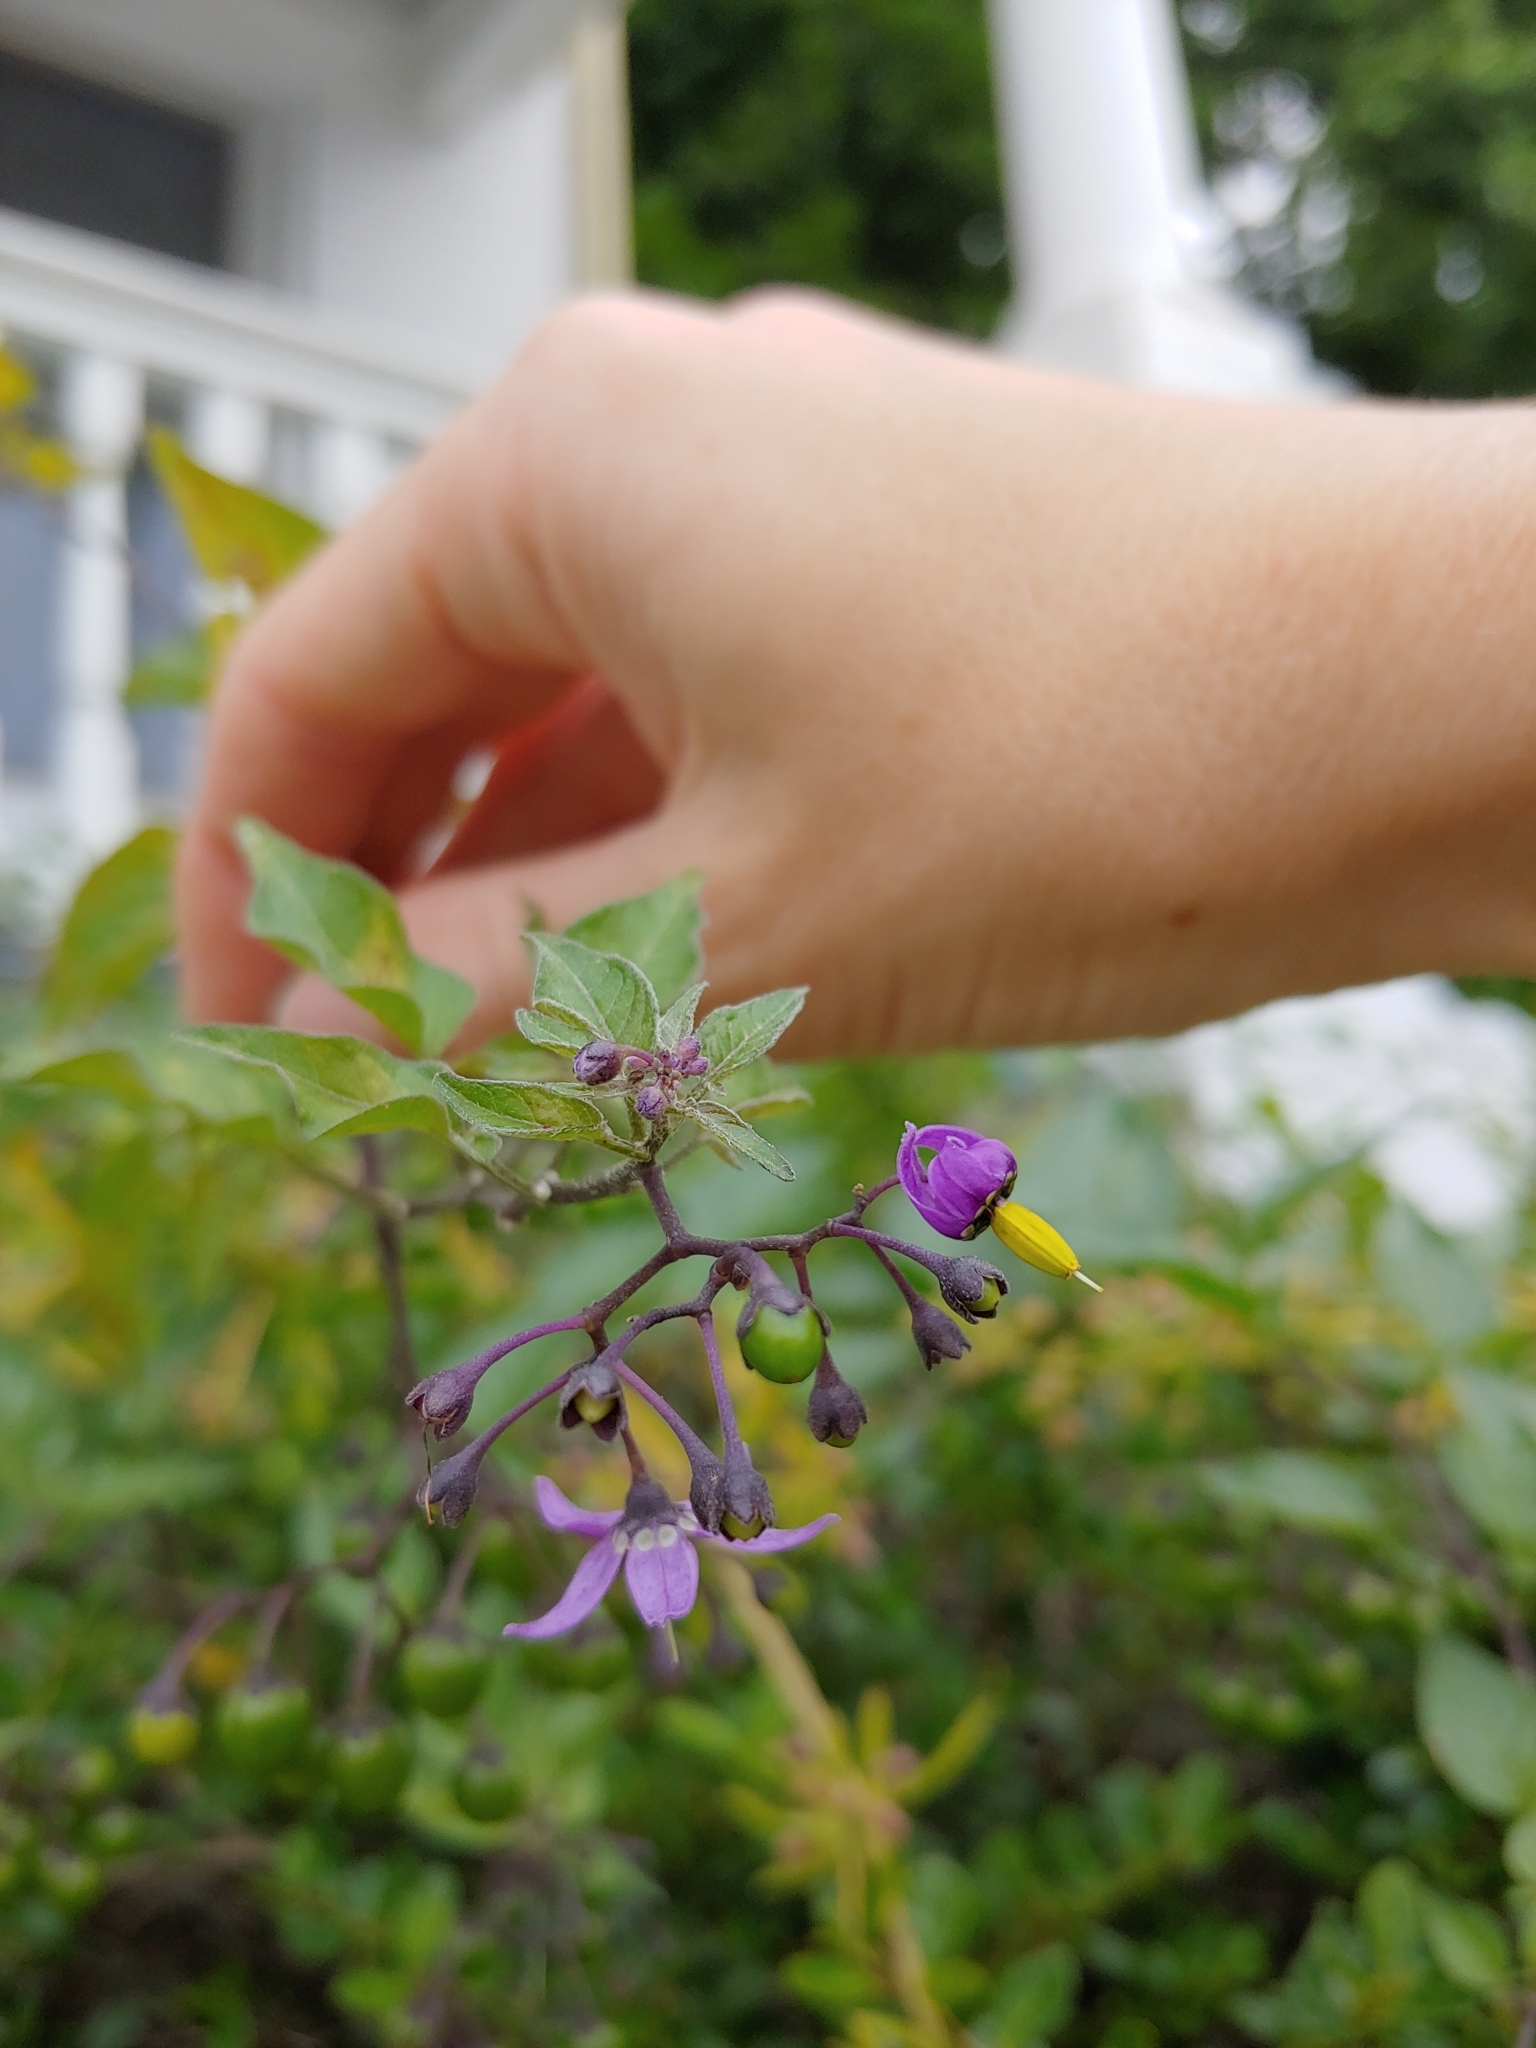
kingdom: Plantae
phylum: Tracheophyta
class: Magnoliopsida
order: Solanales
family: Solanaceae
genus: Solanum
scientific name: Solanum dulcamara
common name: Climbing nightshade
